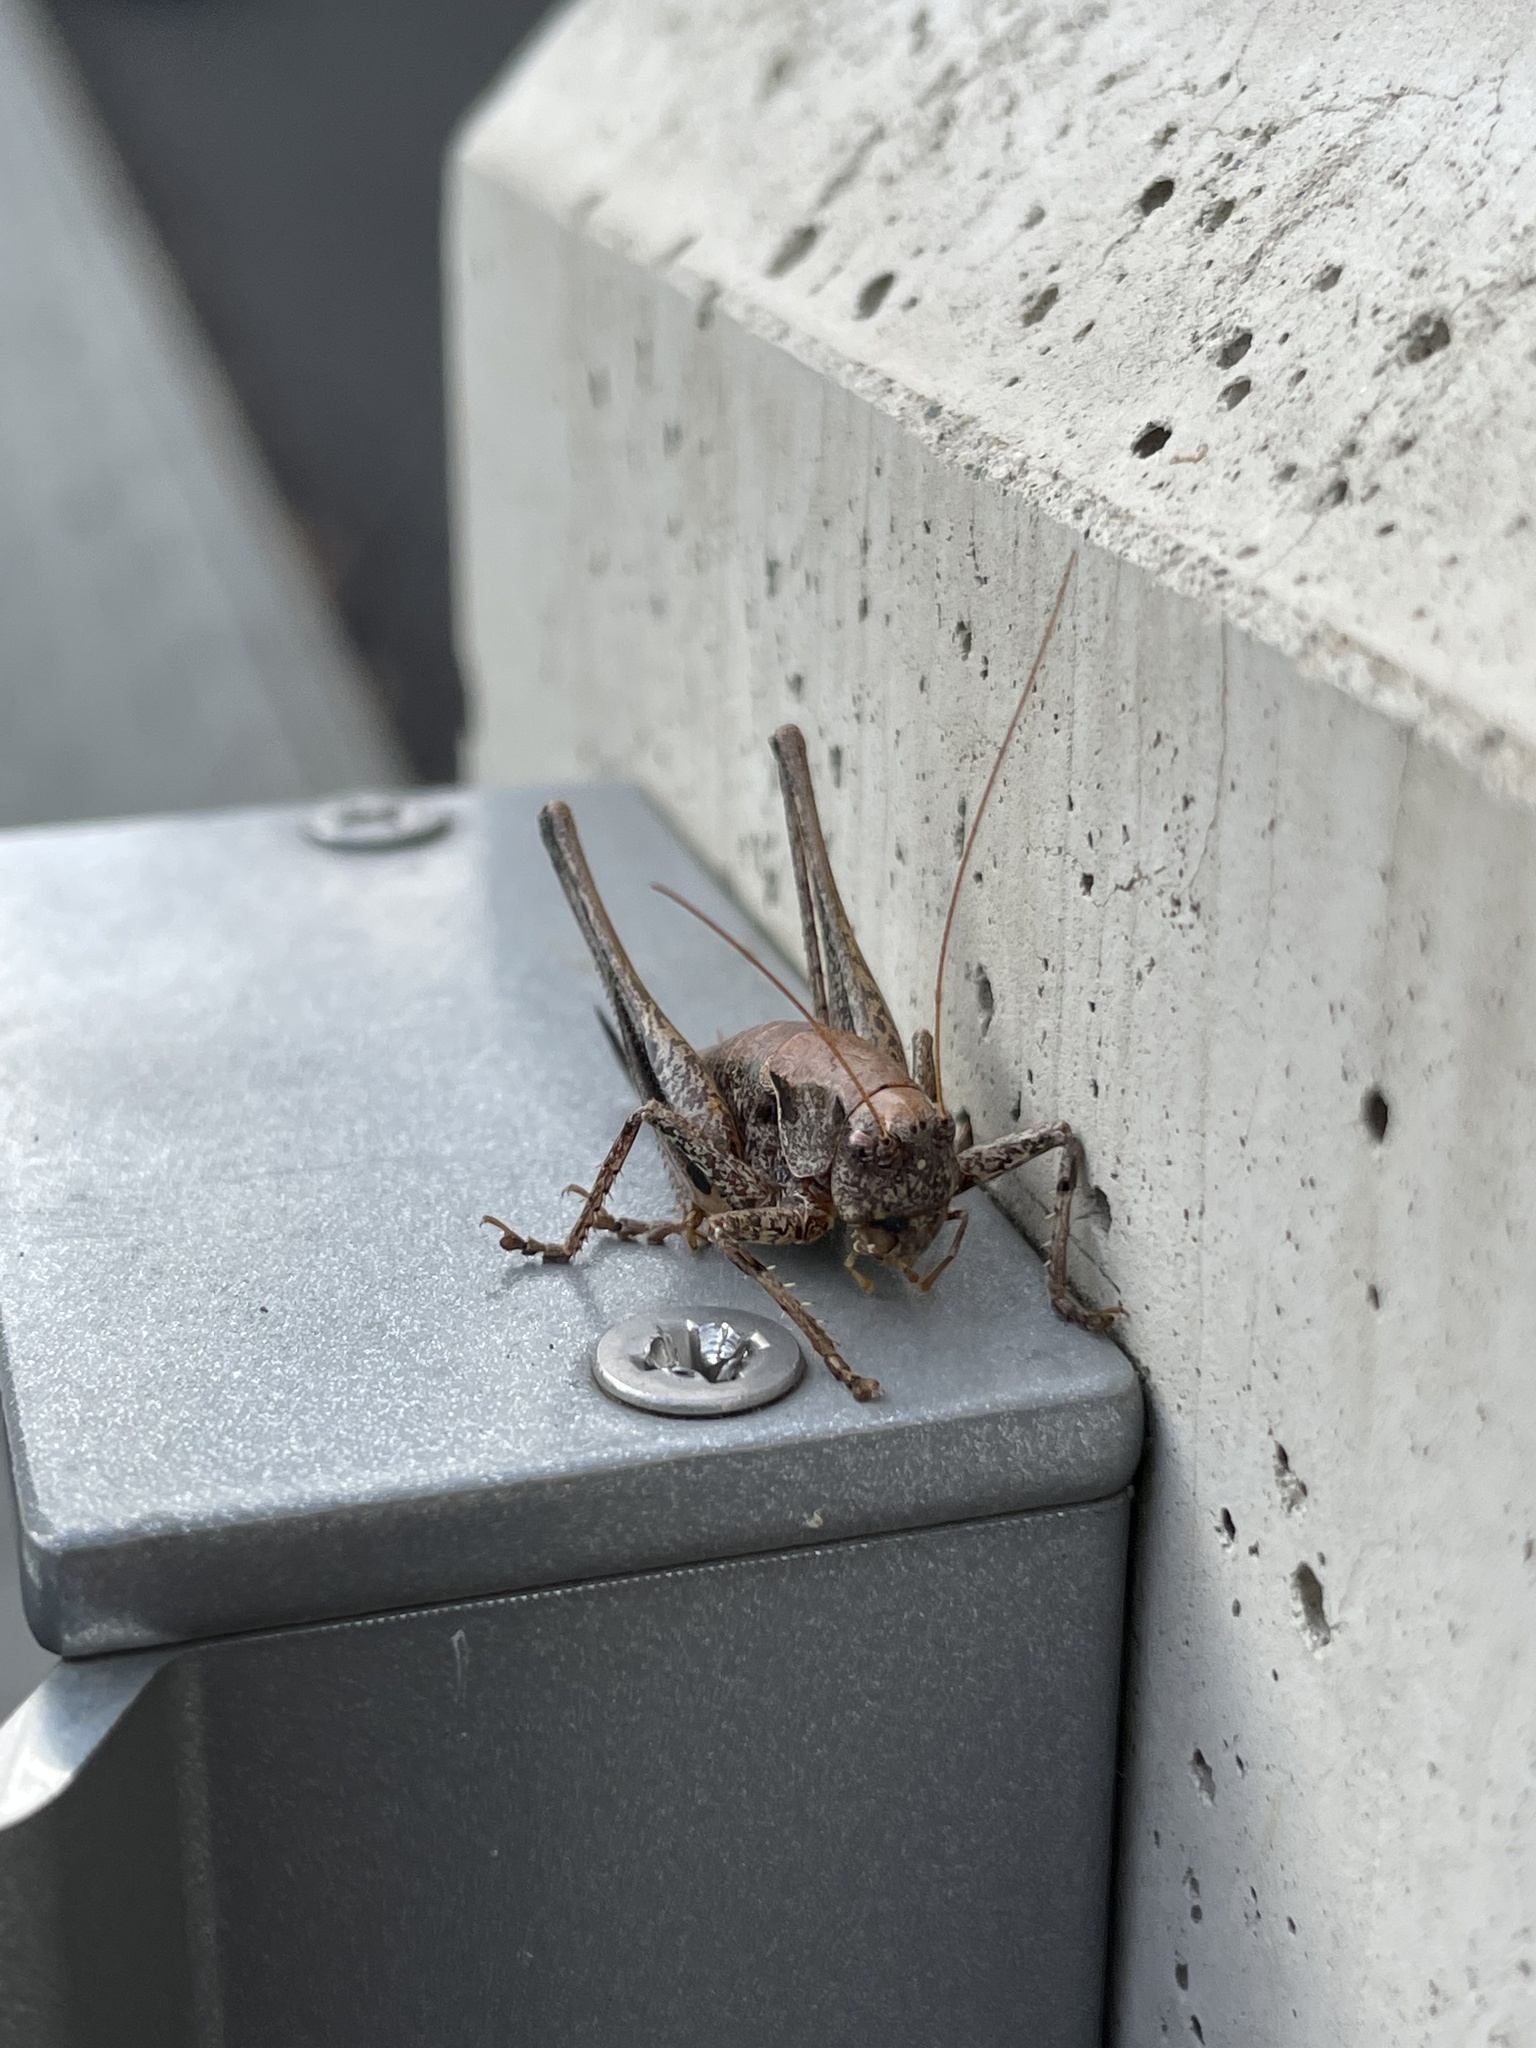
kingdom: Animalia
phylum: Arthropoda
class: Insecta
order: Orthoptera
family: Tettigoniidae
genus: Pholidoptera
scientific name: Pholidoptera griseoaptera
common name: Dark bush-cricket
